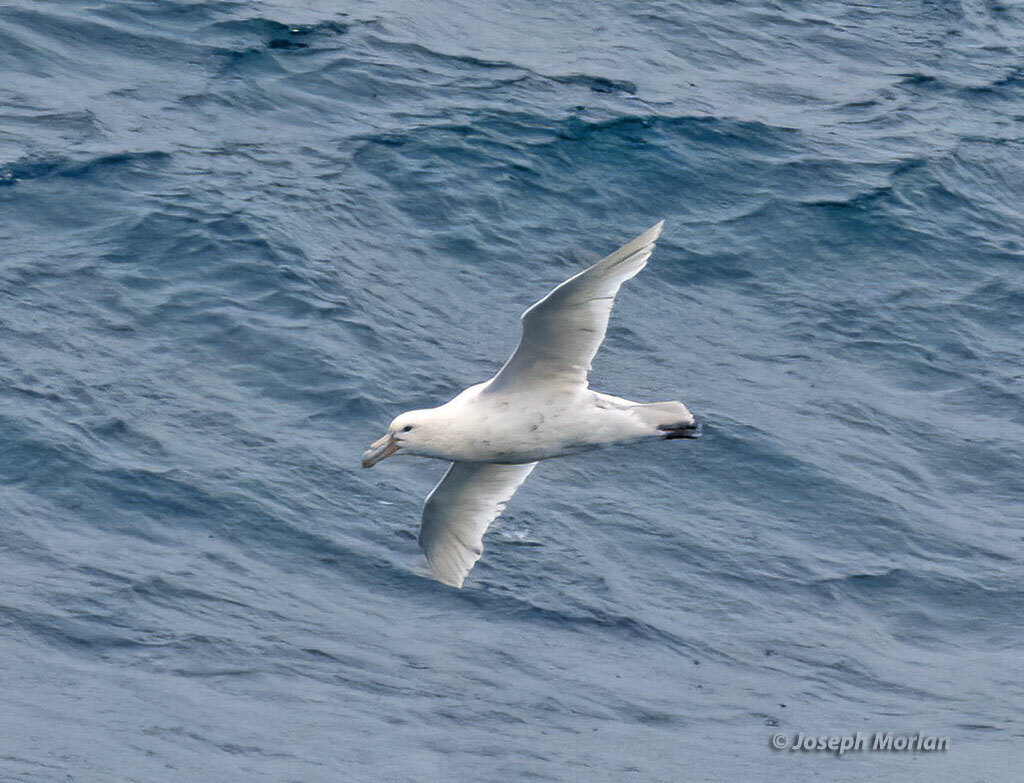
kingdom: Animalia
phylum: Chordata
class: Aves
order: Procellariiformes
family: Procellariidae
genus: Macronectes
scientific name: Macronectes giganteus
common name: Southern giant petrel
